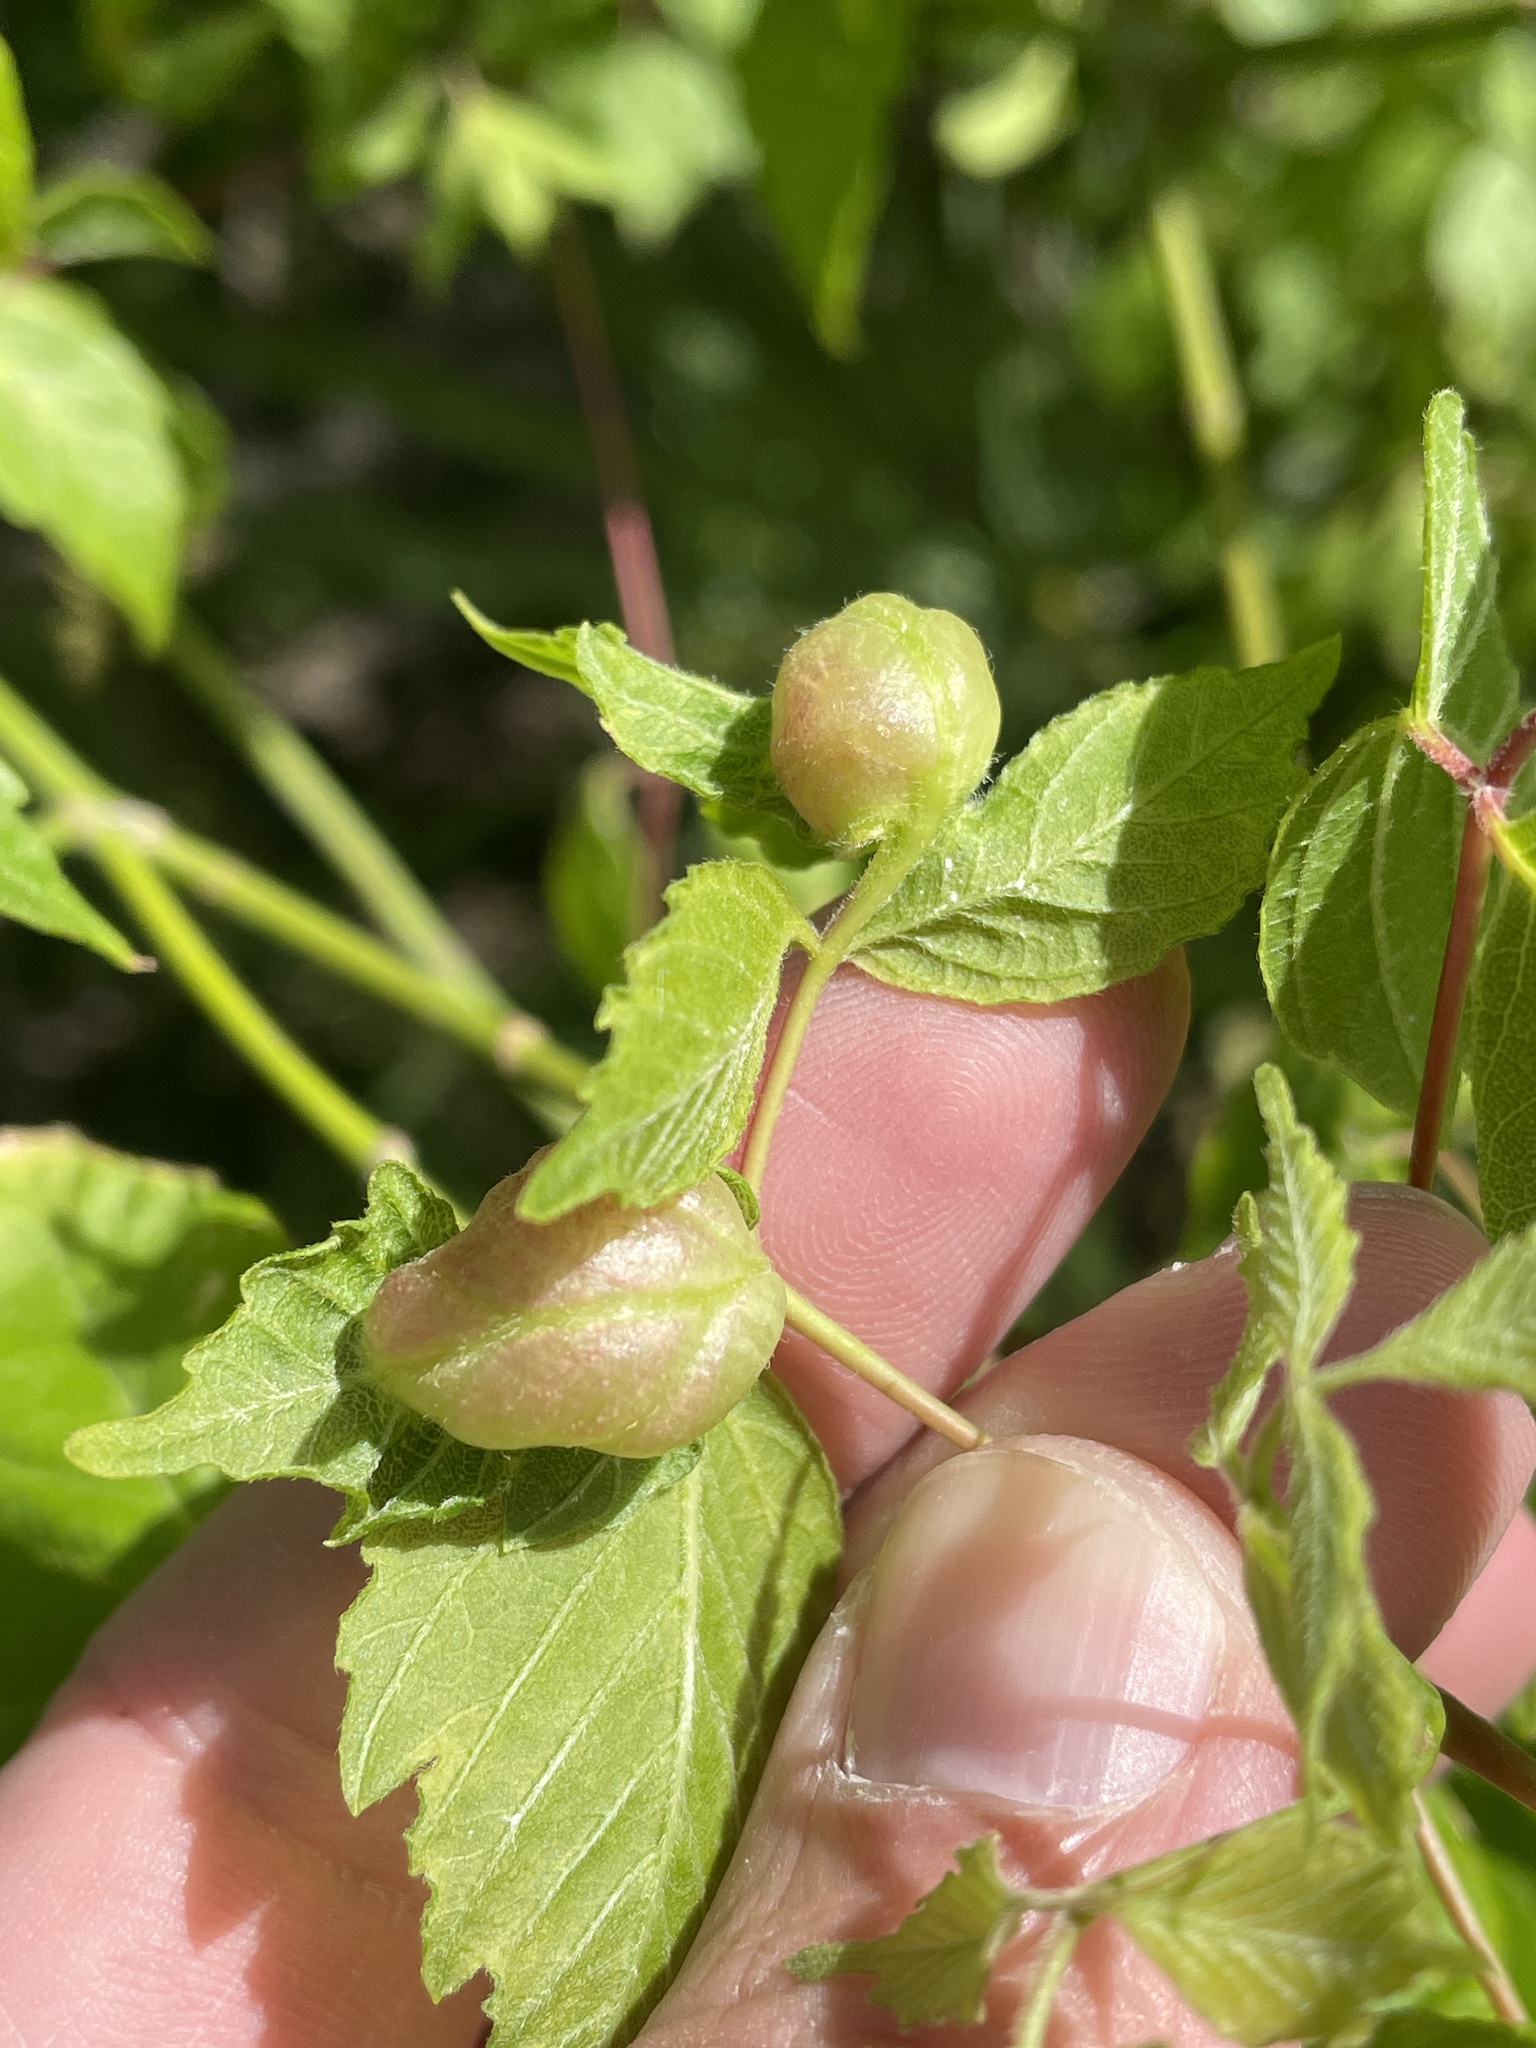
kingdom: Animalia
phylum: Arthropoda
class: Insecta
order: Diptera
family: Cecidomyiidae
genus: Contarinia
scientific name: Contarinia negundinis
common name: Boxelder budgall midge
